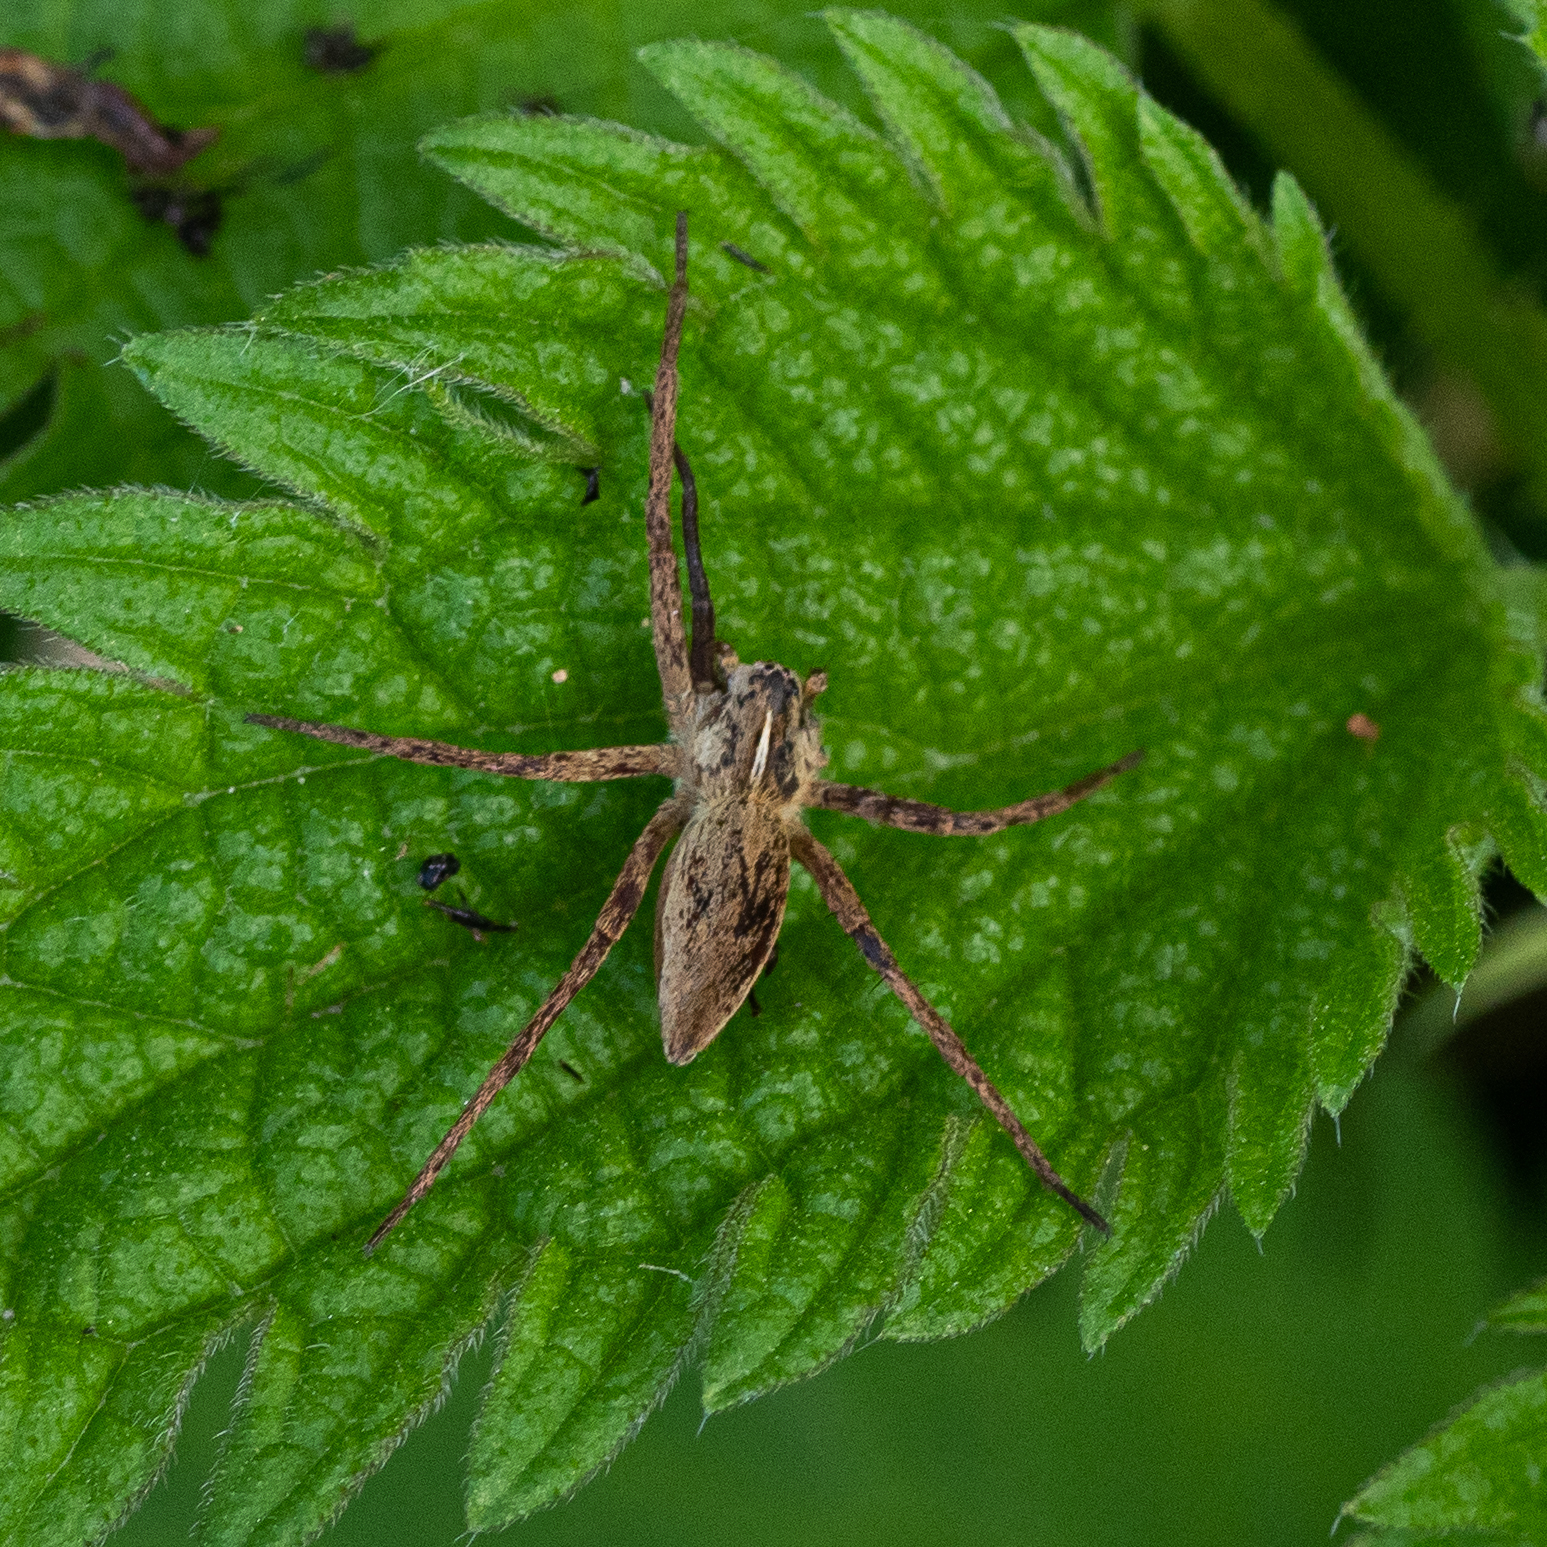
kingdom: Animalia
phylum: Arthropoda
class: Arachnida
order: Araneae
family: Pisauridae
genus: Pisaura
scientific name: Pisaura mirabilis
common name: Tent spider
